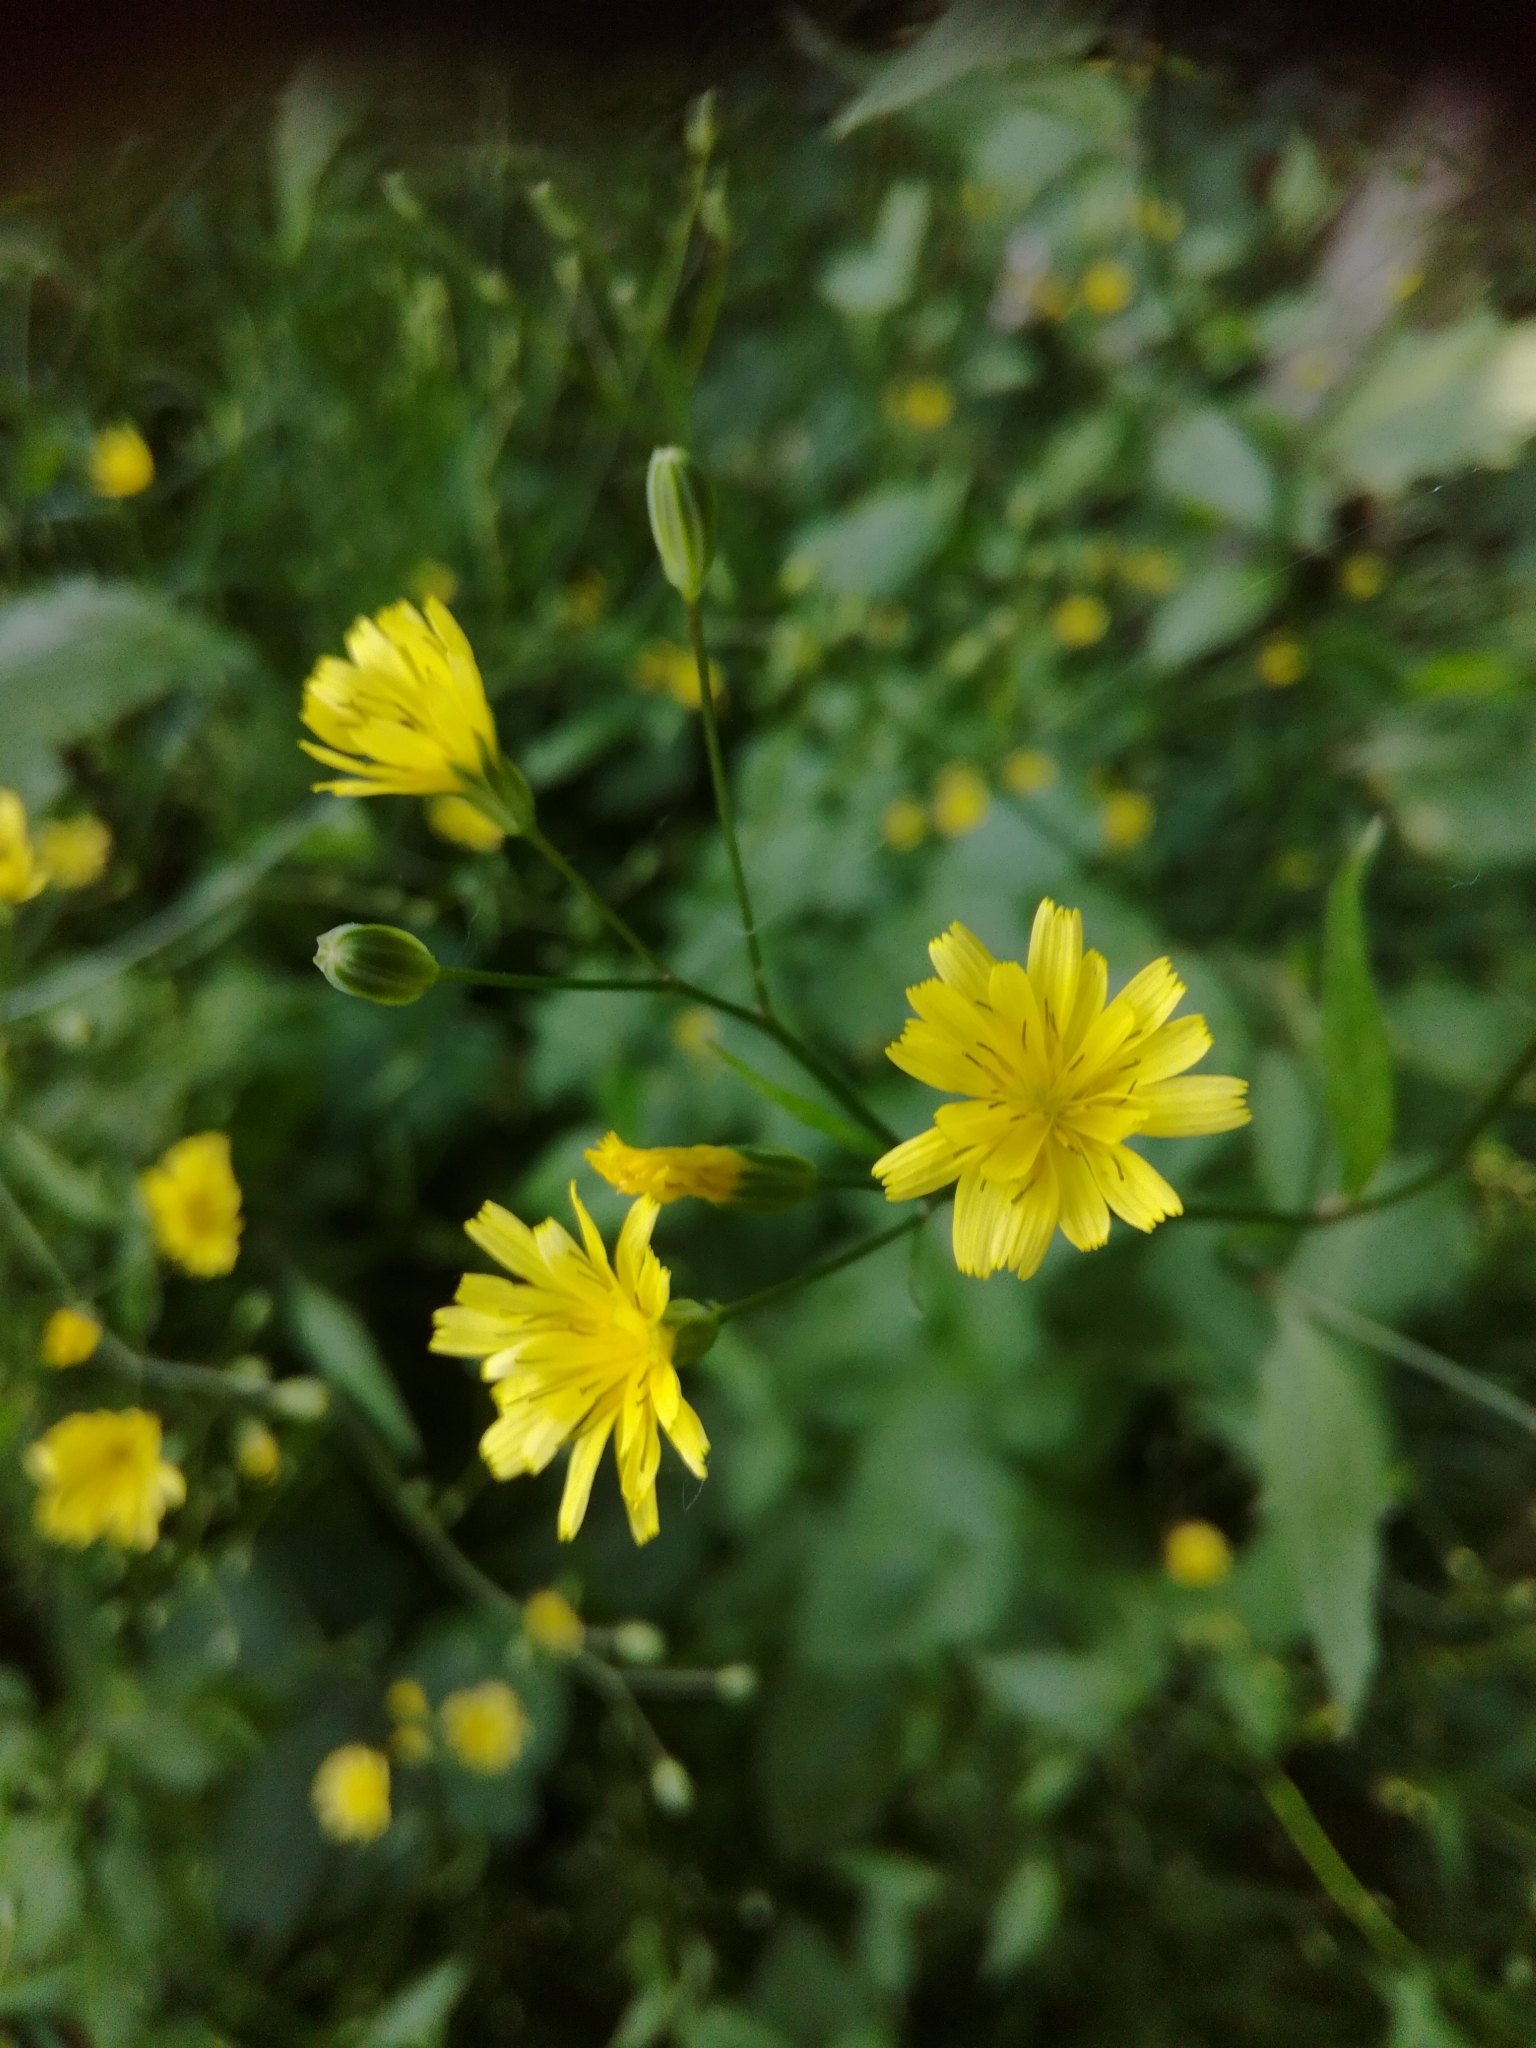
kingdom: Plantae
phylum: Tracheophyta
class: Magnoliopsida
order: Asterales
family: Asteraceae
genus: Lapsana
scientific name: Lapsana communis
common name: Nipplewort
